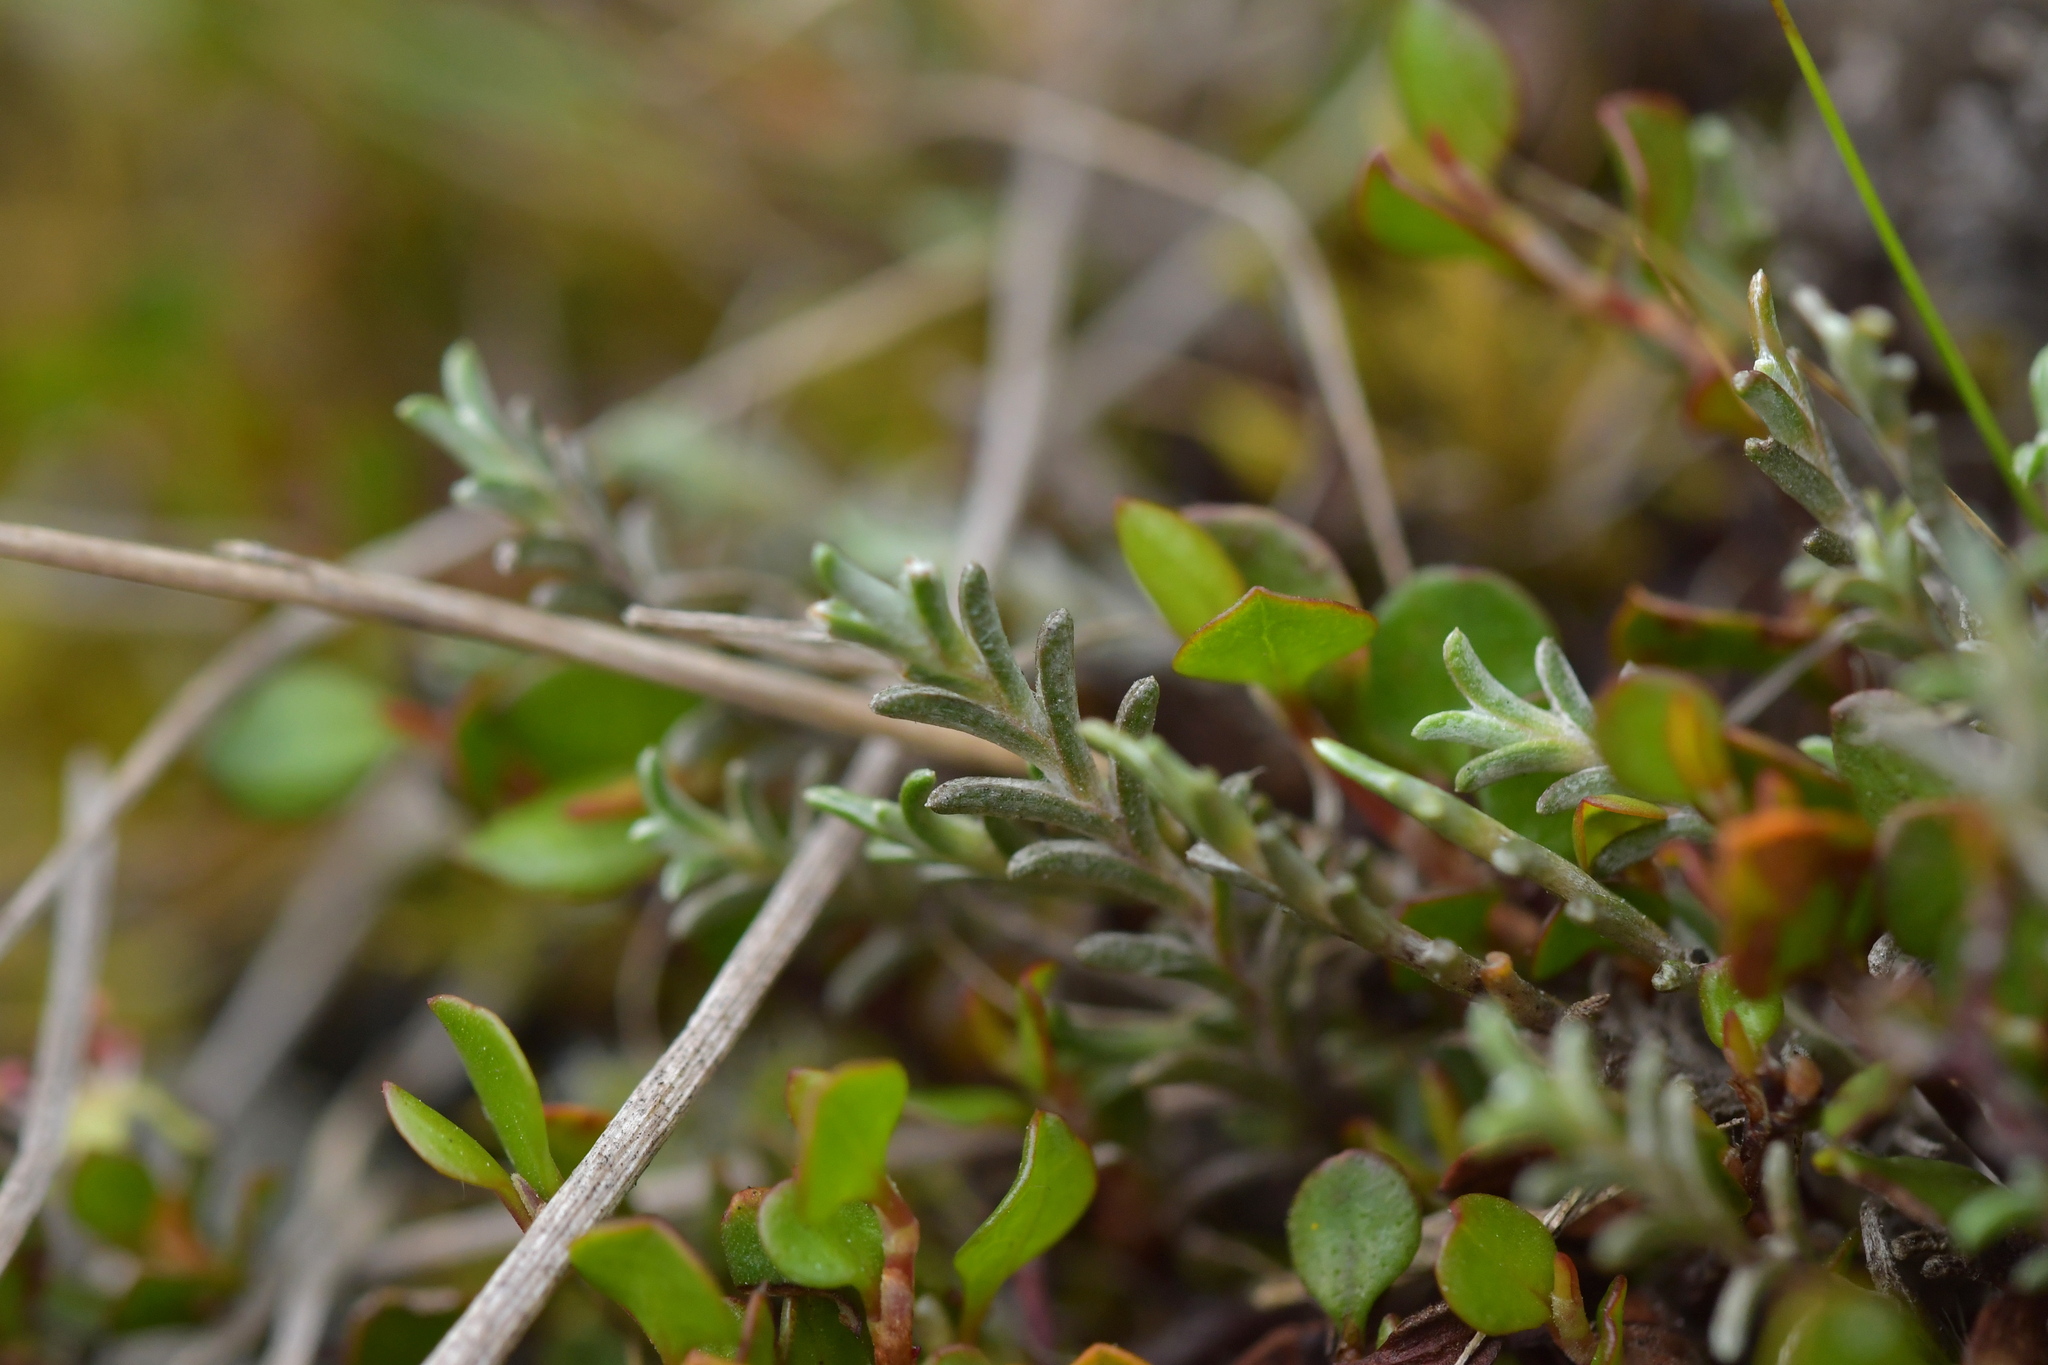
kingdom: Plantae
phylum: Tracheophyta
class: Magnoliopsida
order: Asterales
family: Asteraceae
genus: Raoulia
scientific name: Raoulia monroi
